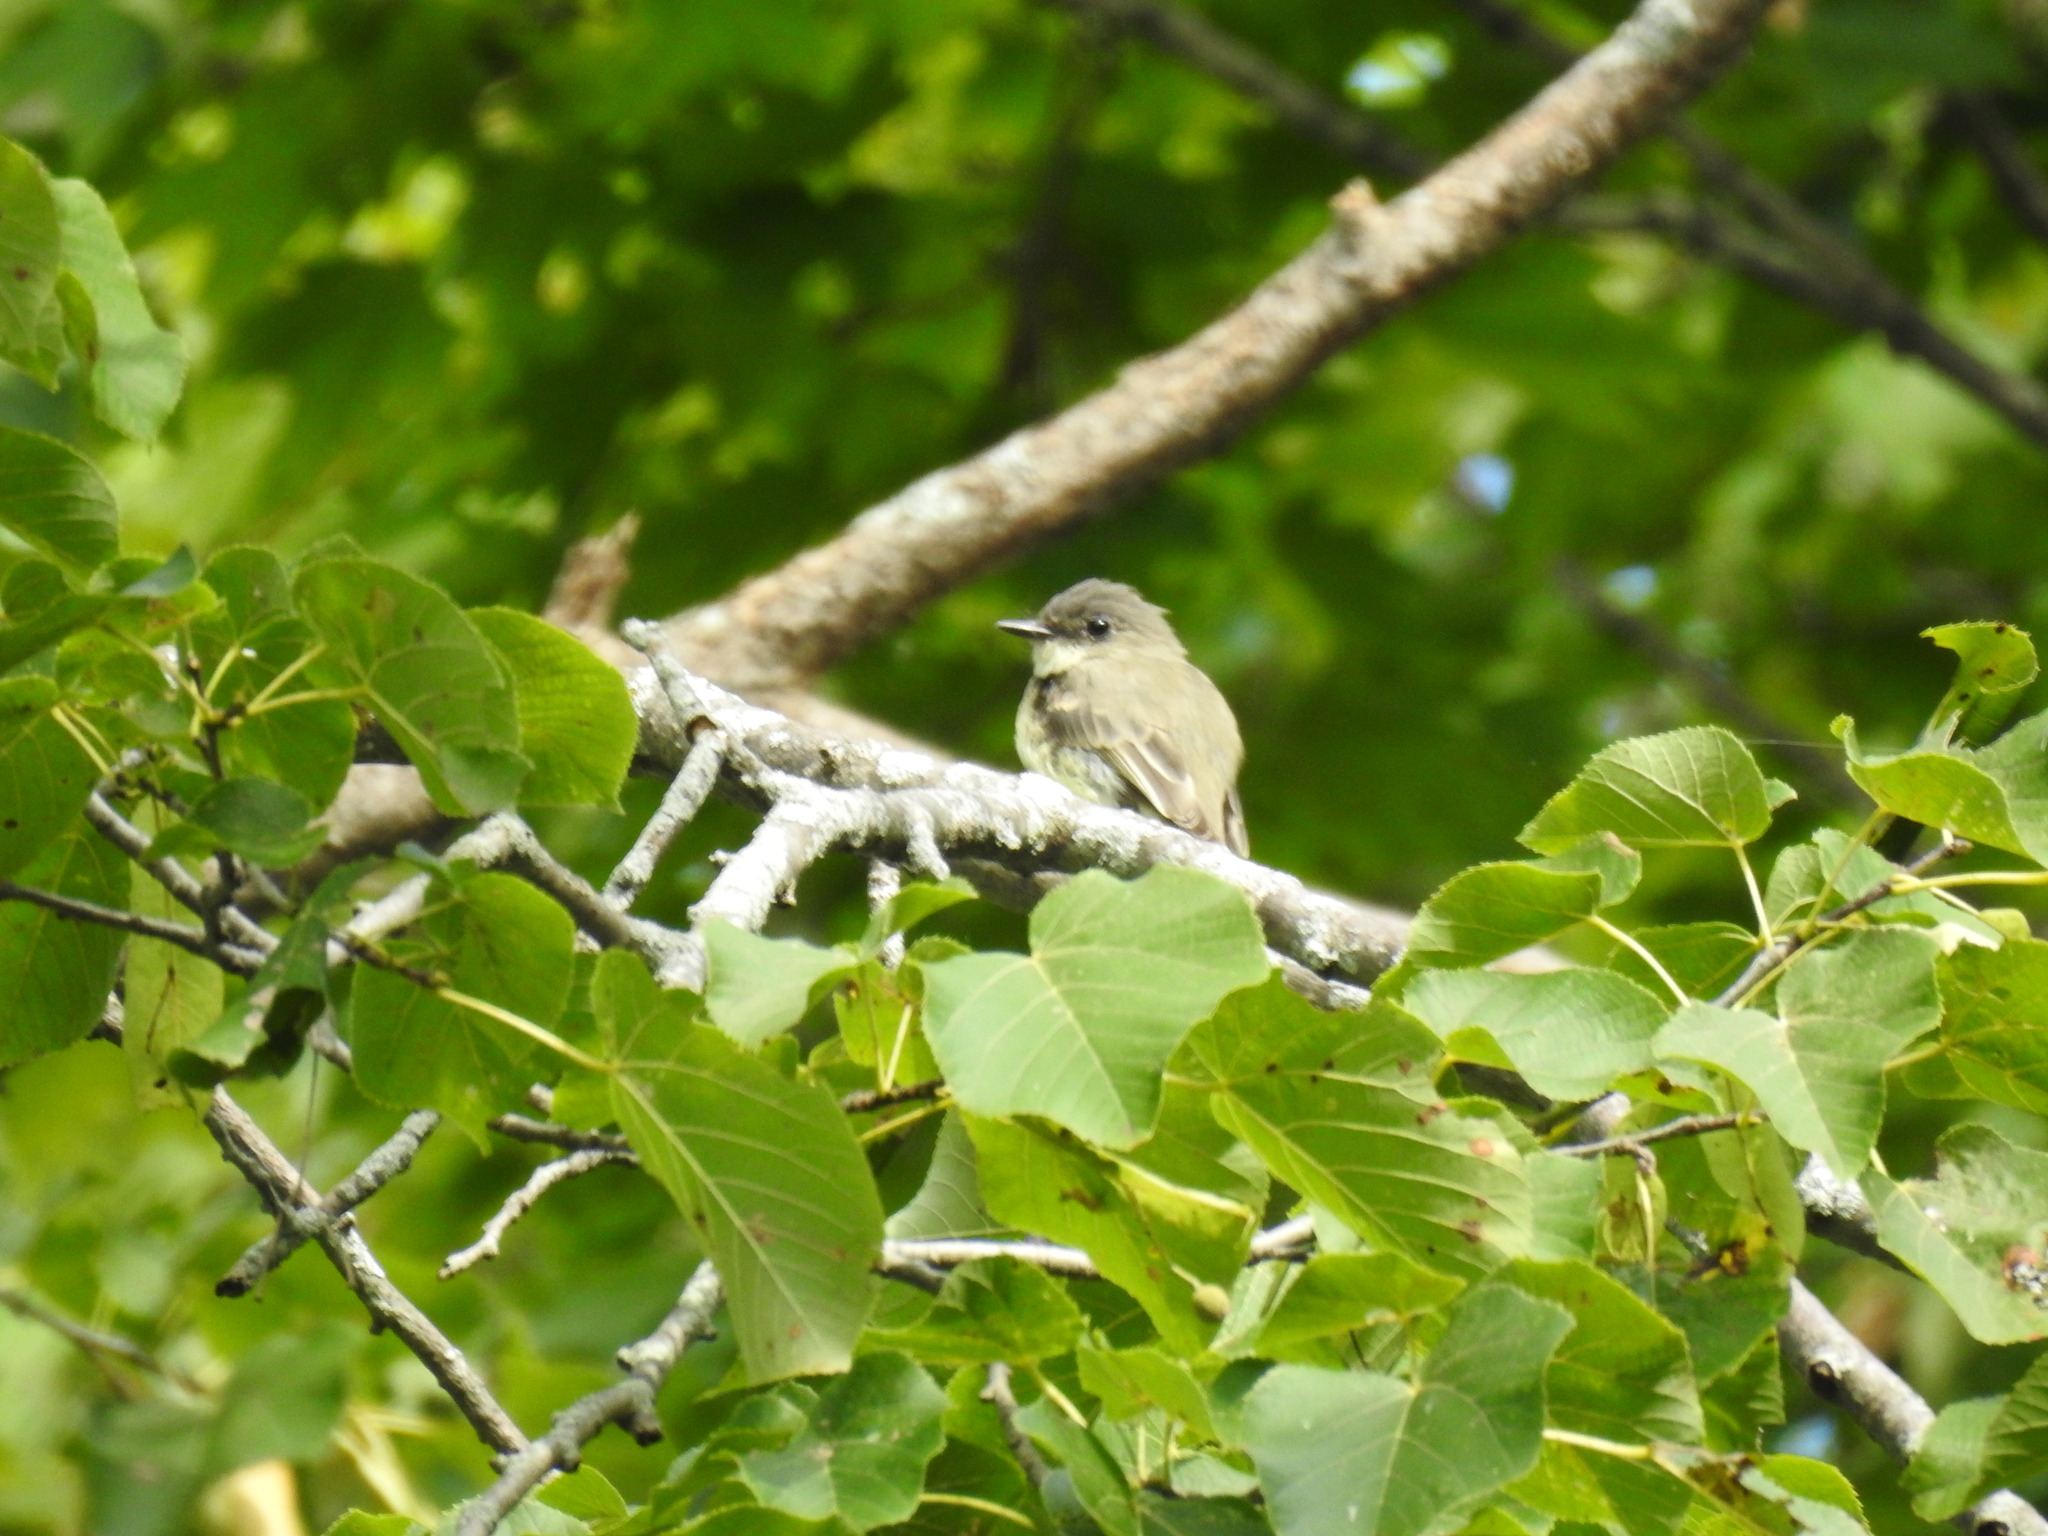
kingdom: Animalia
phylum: Chordata
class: Aves
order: Passeriformes
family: Tyrannidae
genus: Sayornis
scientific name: Sayornis phoebe
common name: Eastern phoebe
